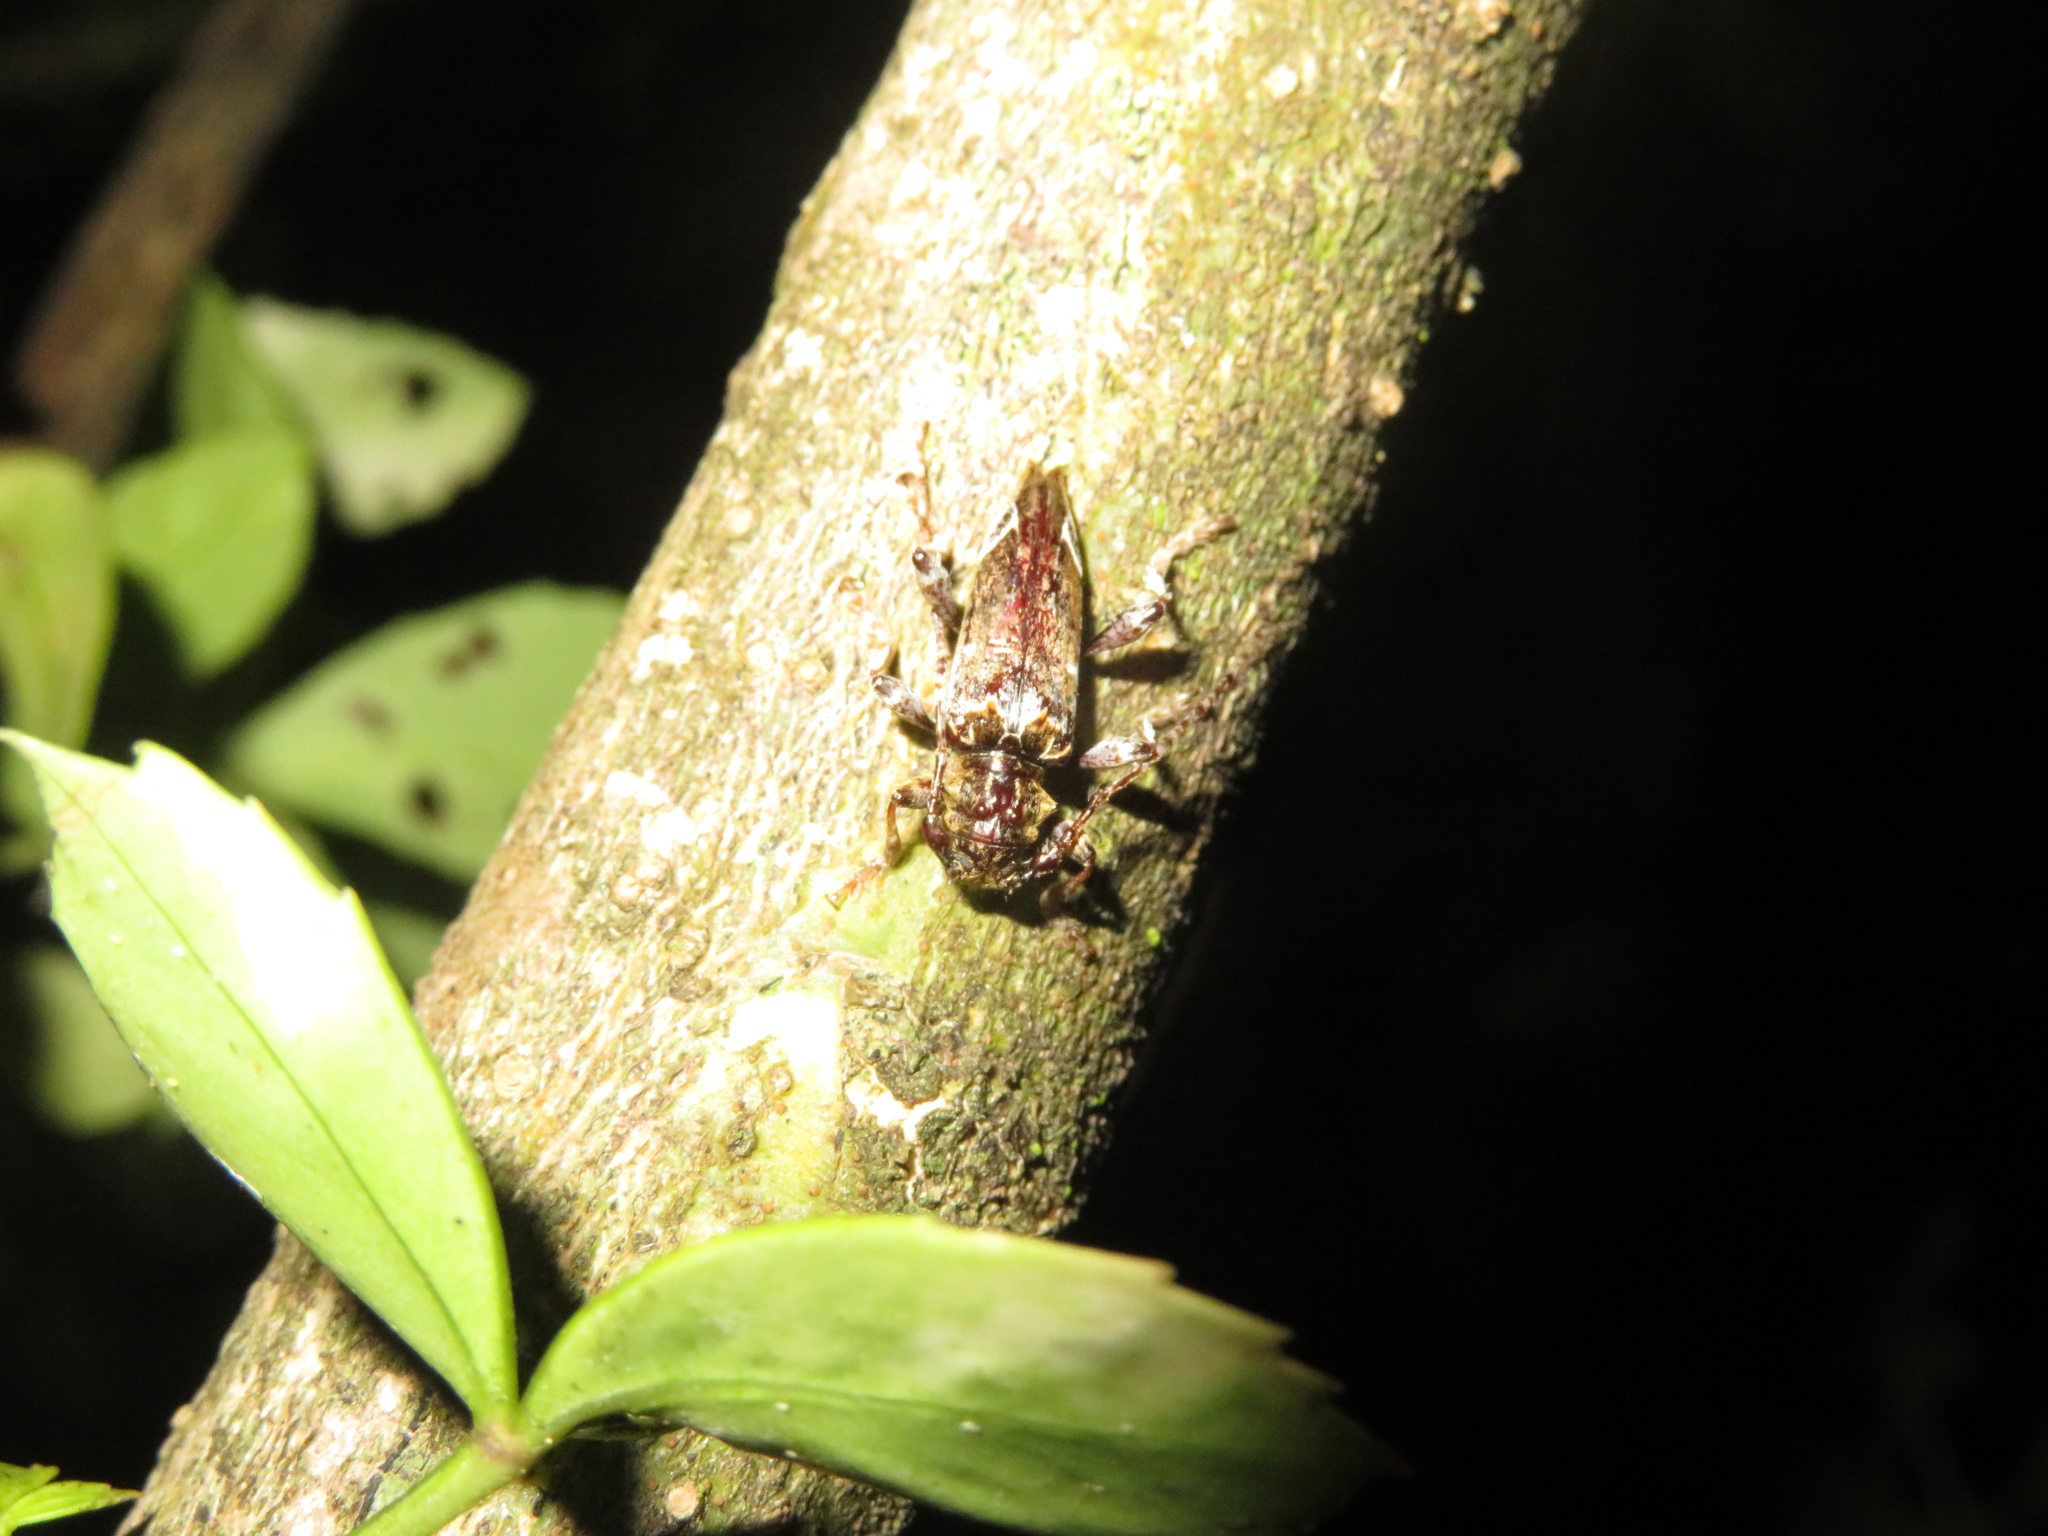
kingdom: Animalia
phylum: Arthropoda
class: Insecta
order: Coleoptera
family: Cerambycidae
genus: Tetrorea
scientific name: Tetrorea cilipes
